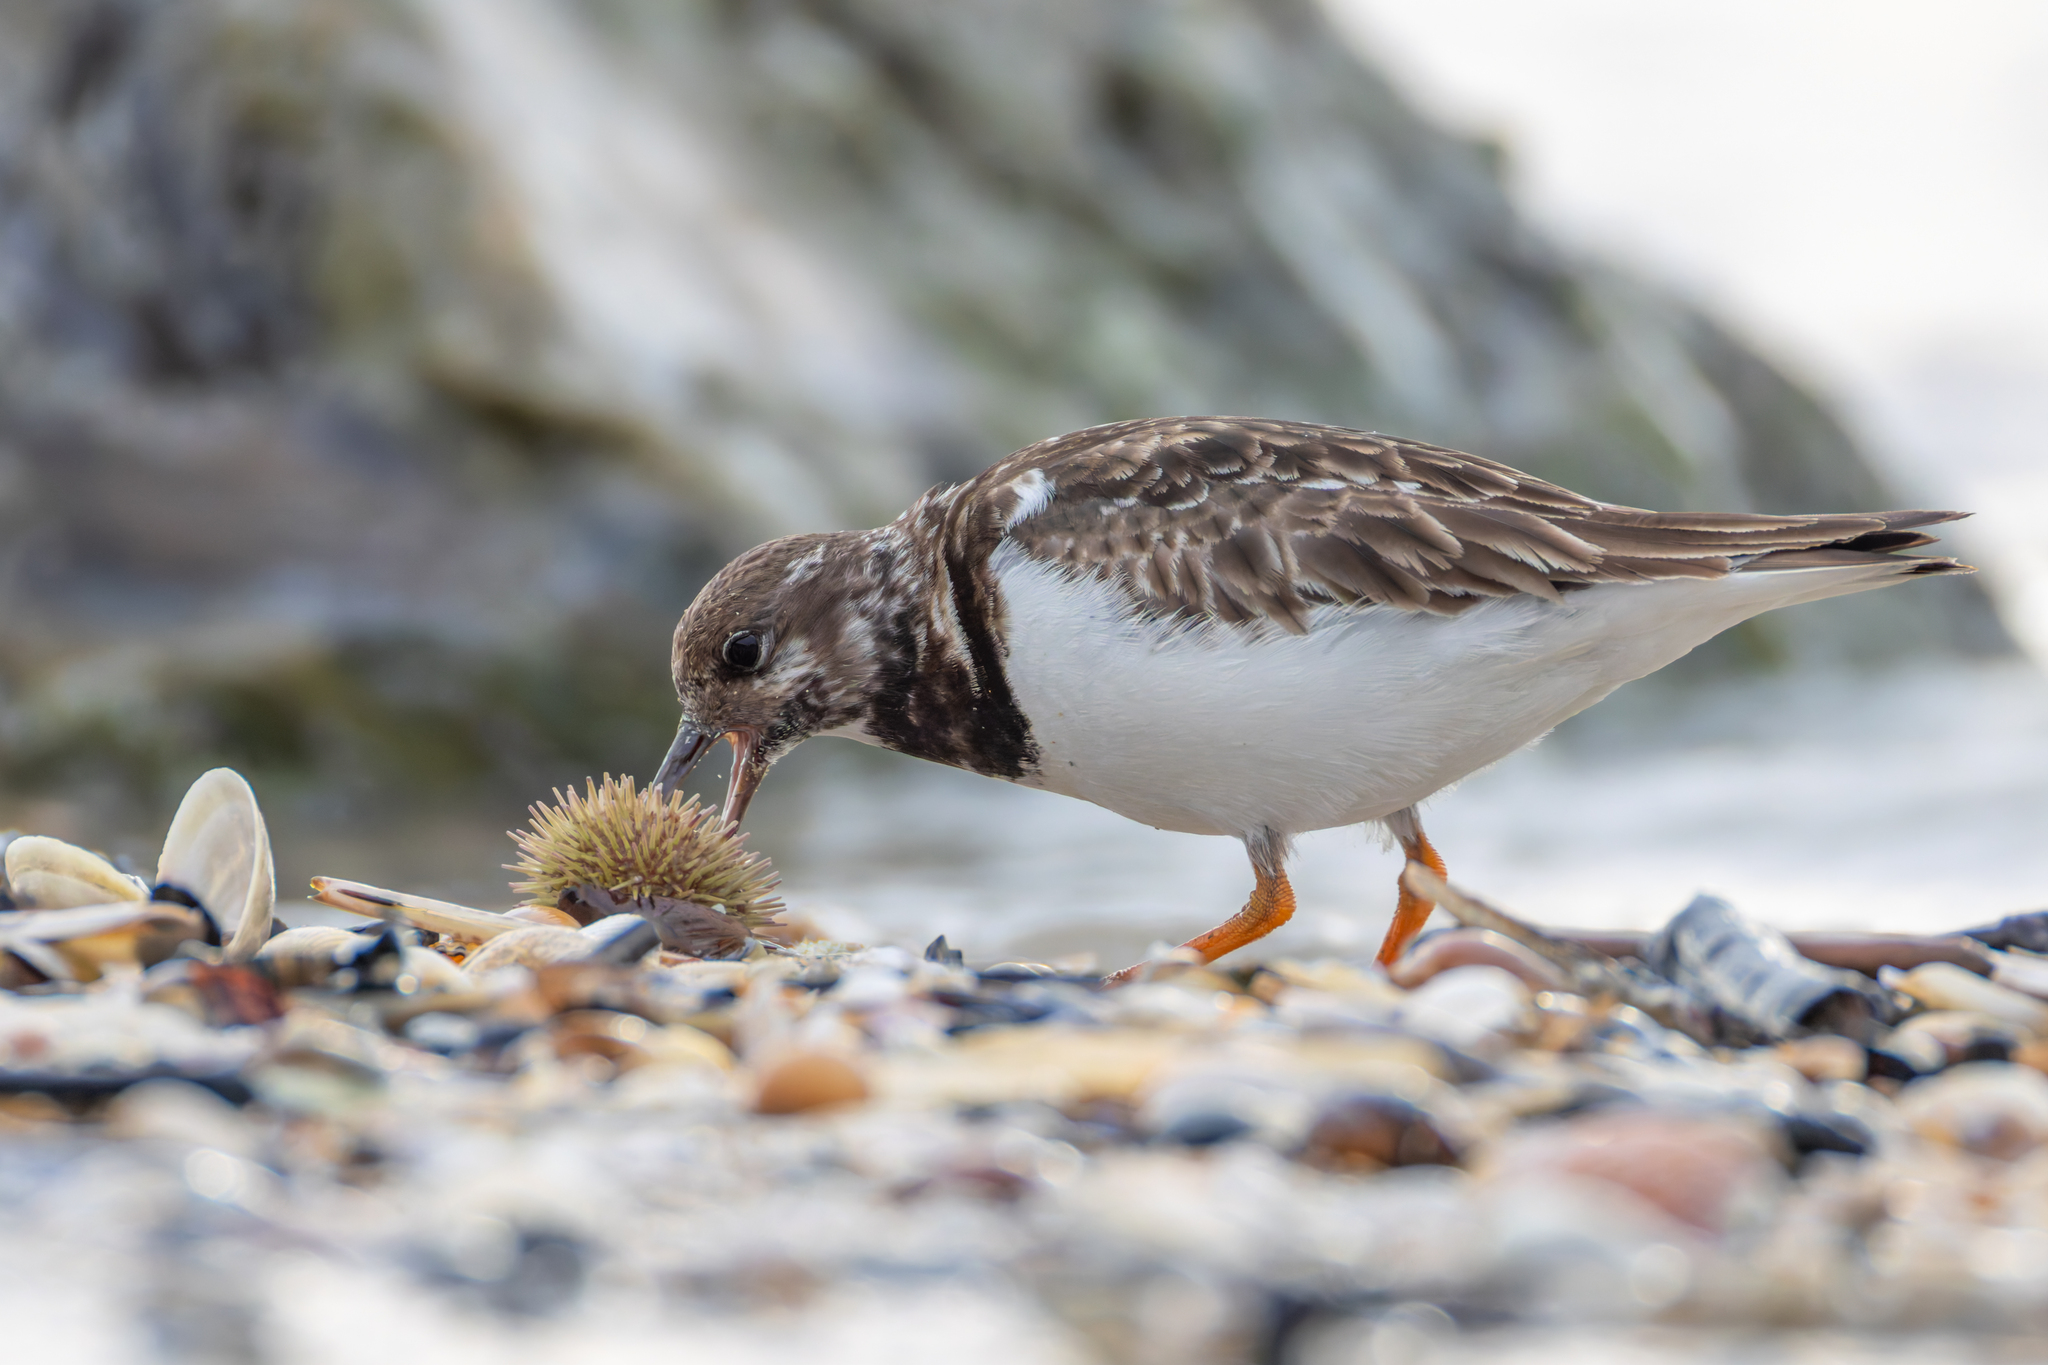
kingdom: Animalia
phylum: Chordata
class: Aves
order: Charadriiformes
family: Scolopacidae
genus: Arenaria
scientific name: Arenaria interpres
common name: Ruddy turnstone
